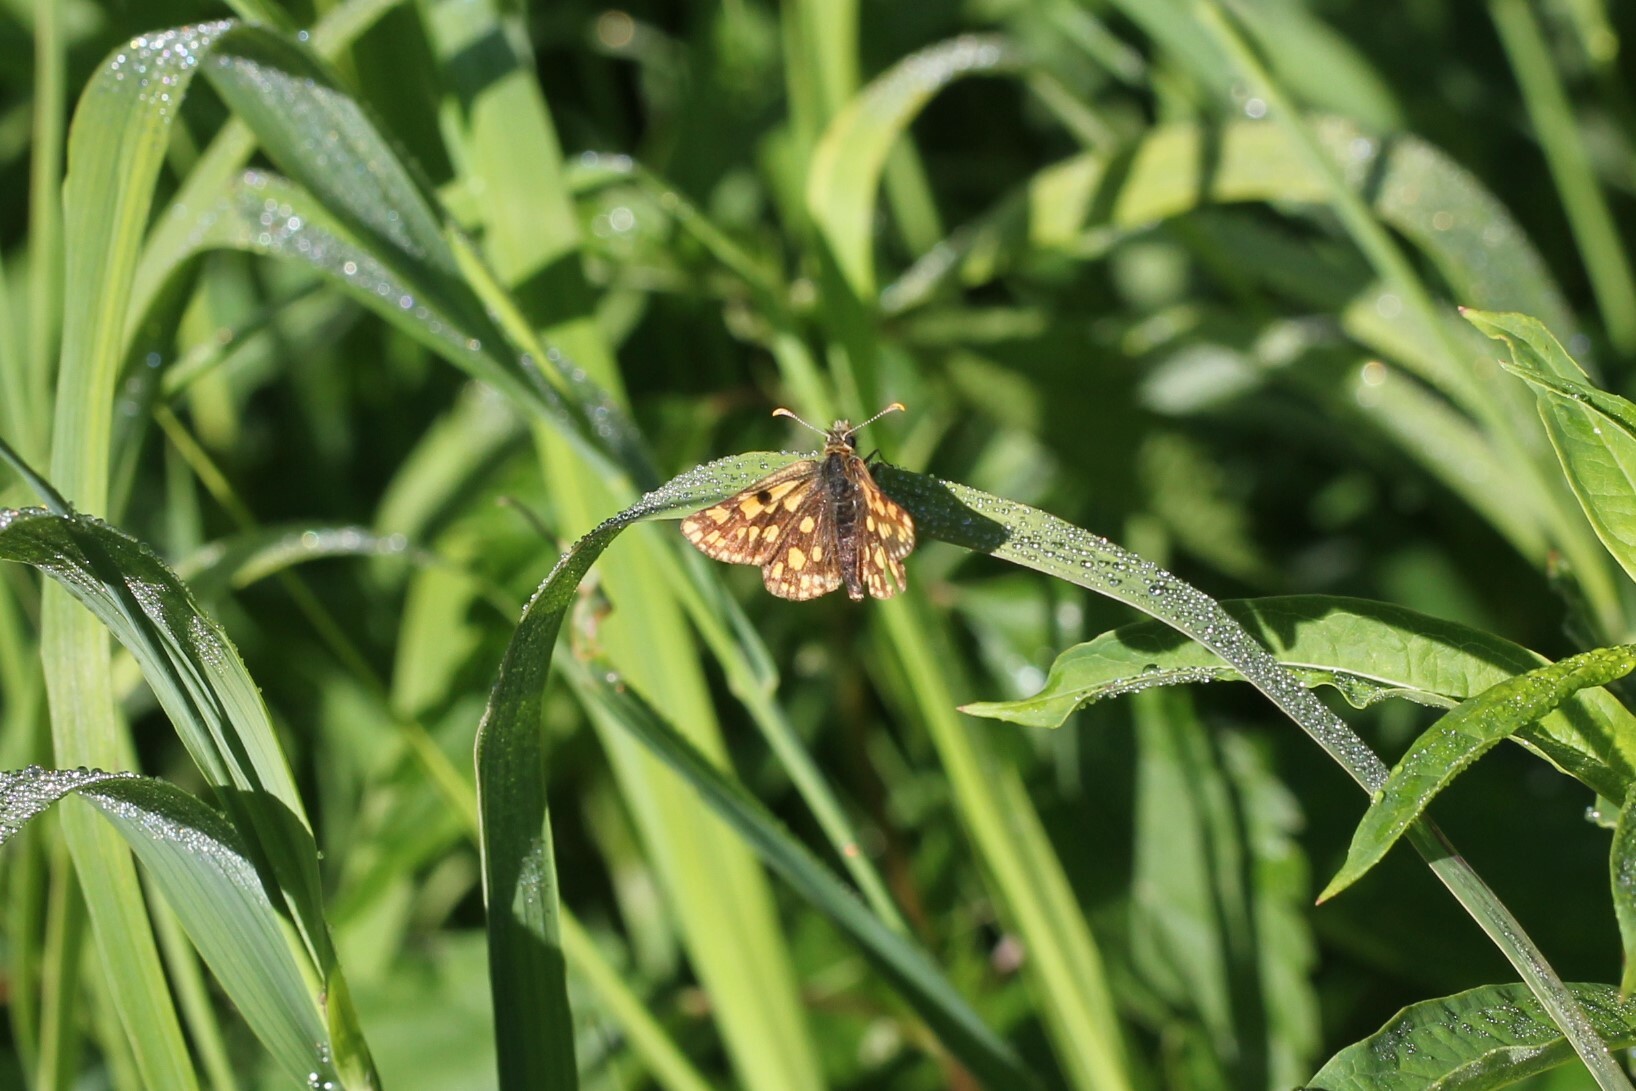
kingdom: Animalia
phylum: Arthropoda
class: Insecta
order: Lepidoptera
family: Hesperiidae
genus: Carterocephalus
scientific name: Carterocephalus skada
